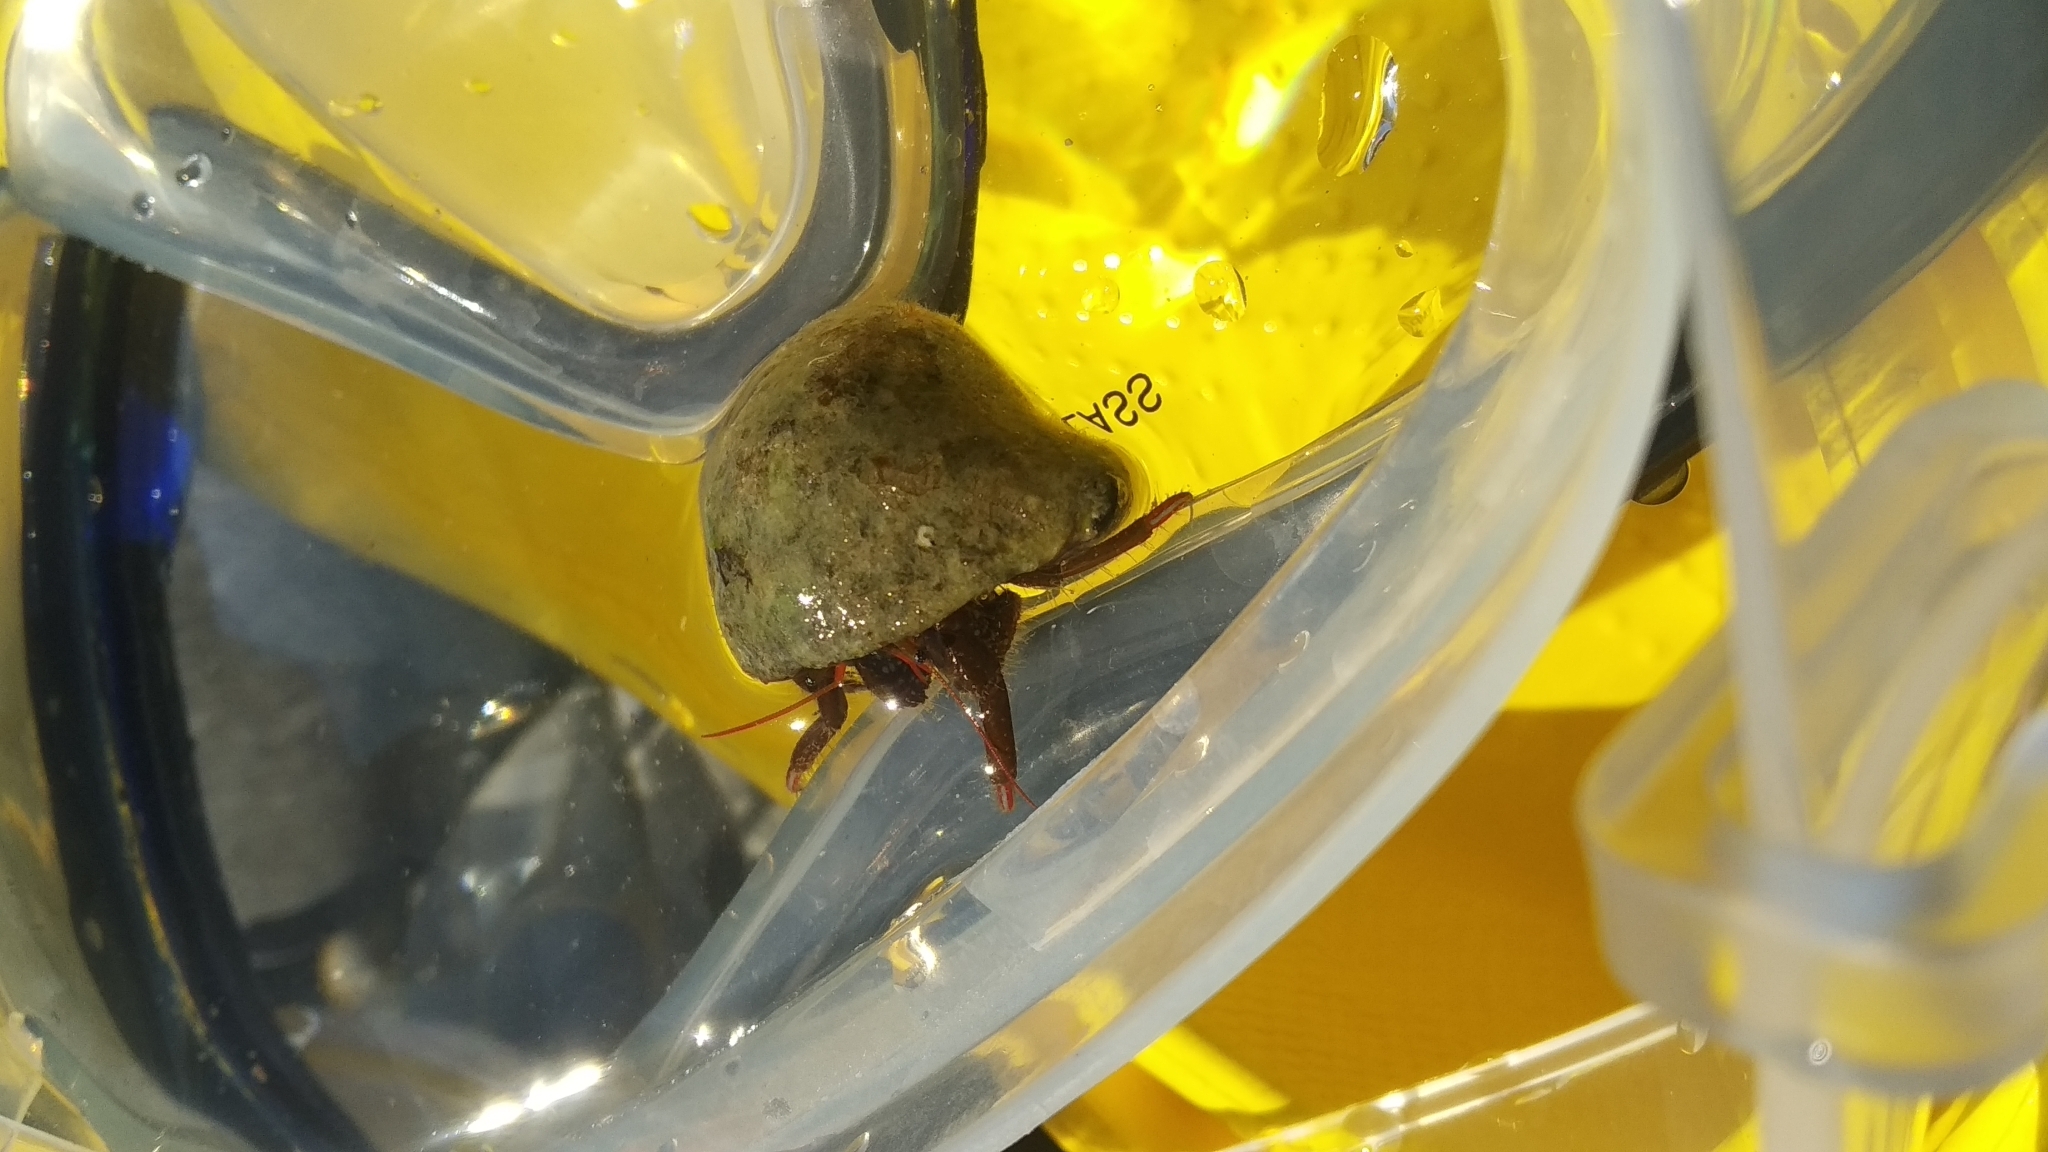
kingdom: Animalia
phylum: Arthropoda
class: Malacostraca
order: Decapoda
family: Diogenidae
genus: Clibanarius
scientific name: Clibanarius erythropus
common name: Hermit crab
